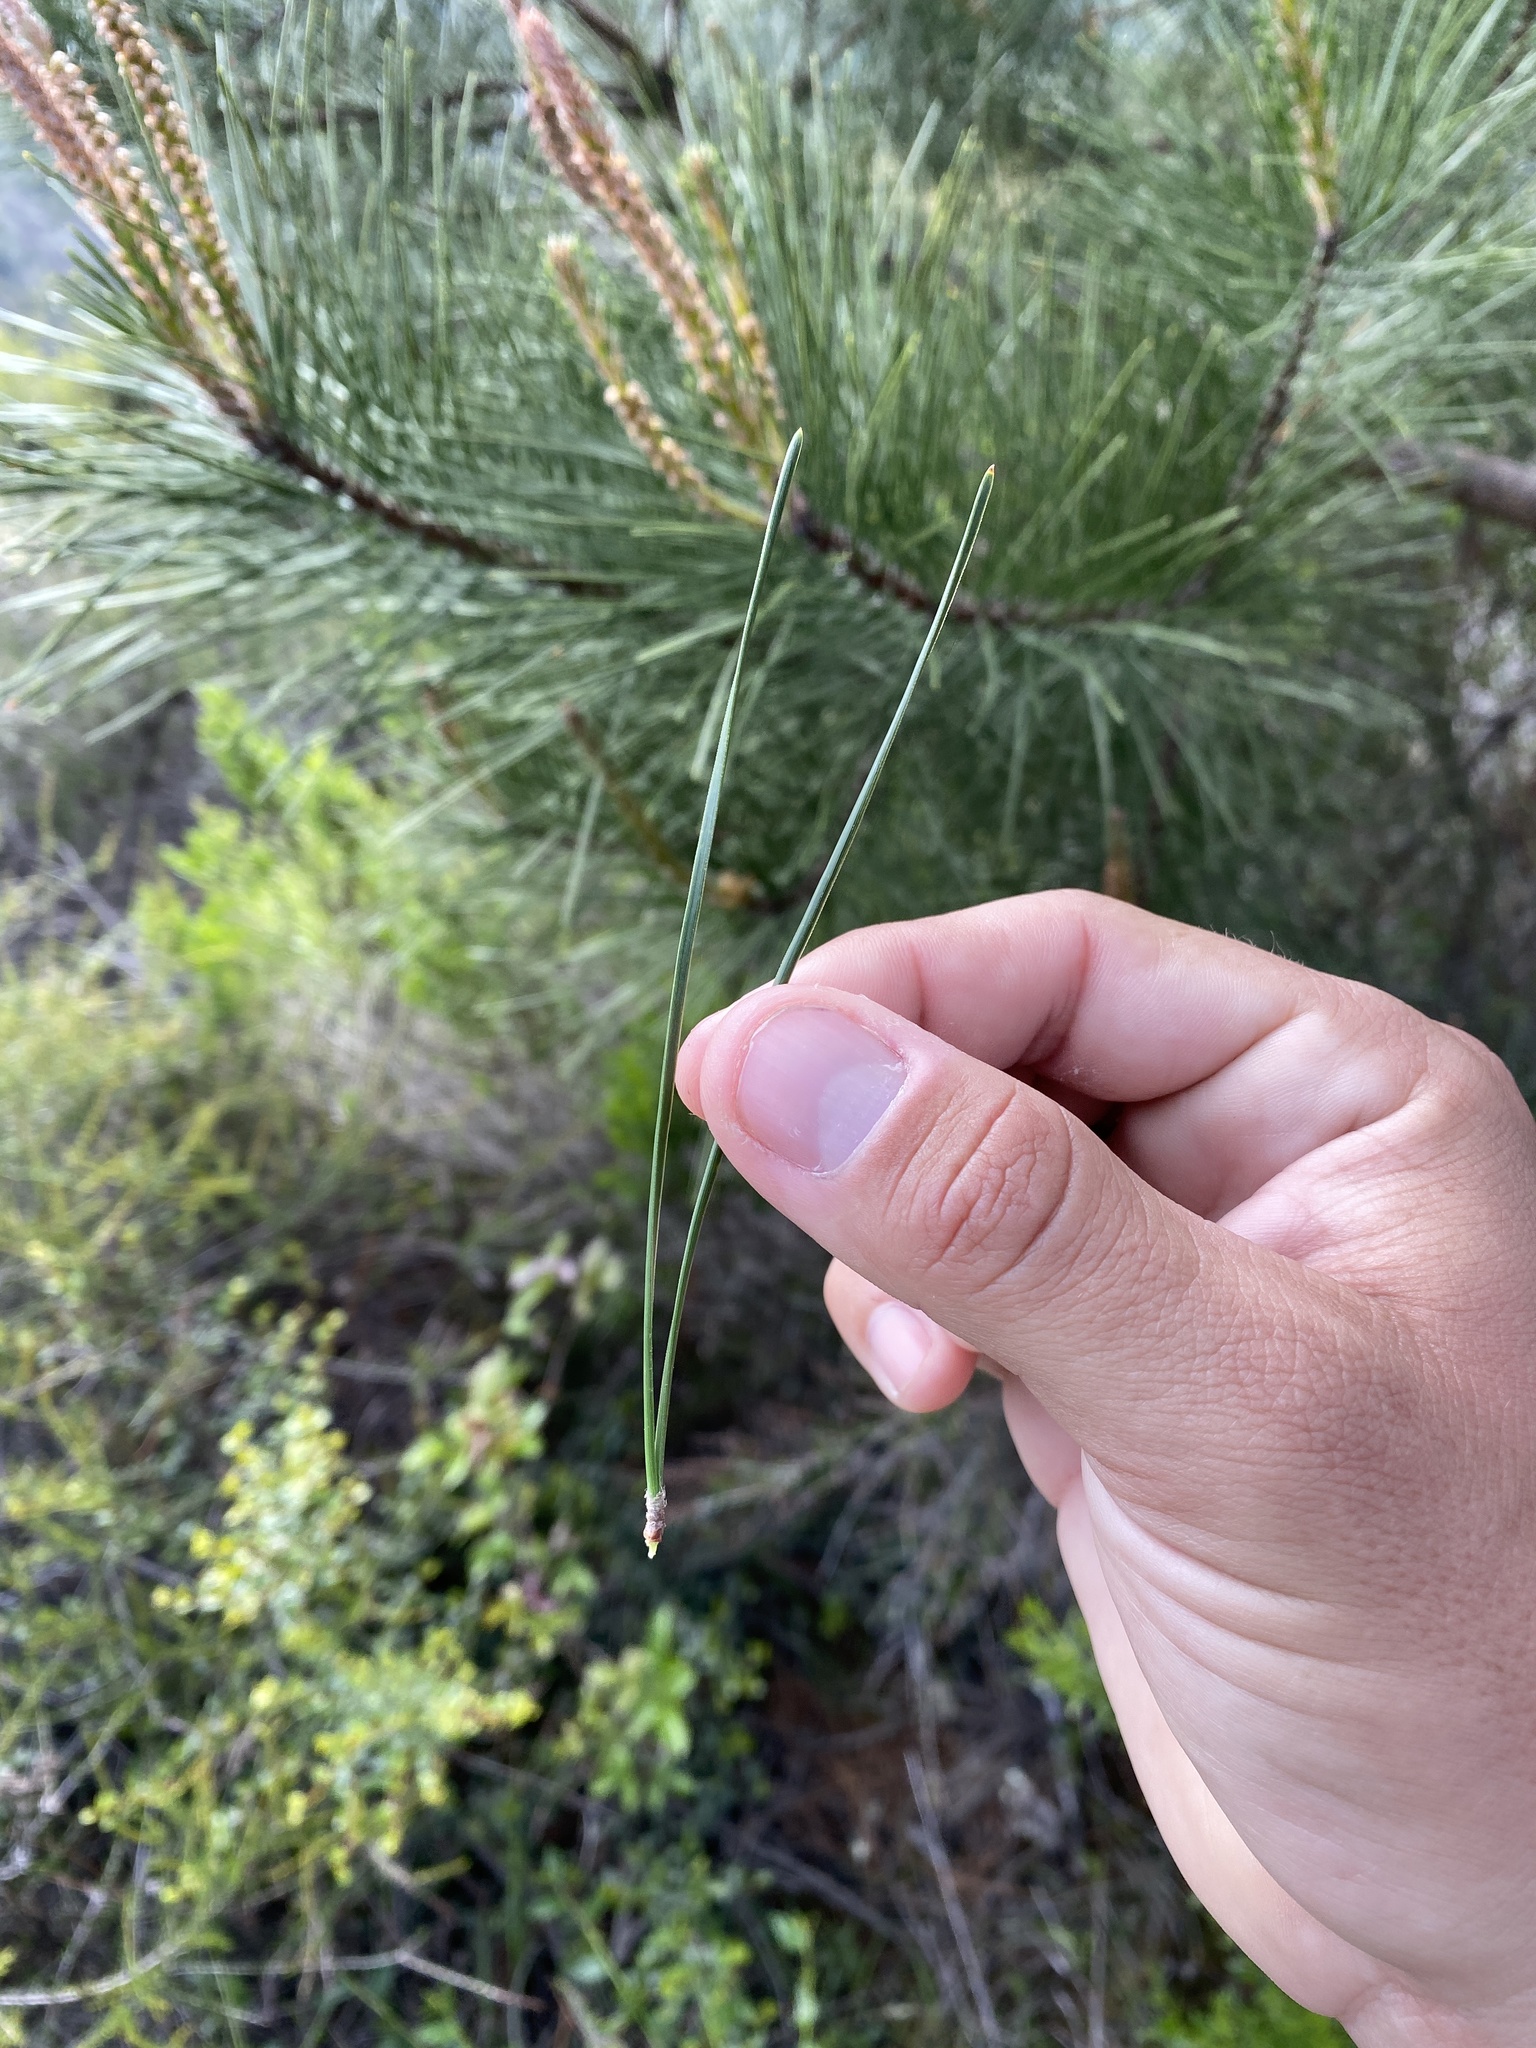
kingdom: Plantae
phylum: Tracheophyta
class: Pinopsida
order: Pinales
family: Pinaceae
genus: Pinus
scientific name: Pinus muricata
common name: Bishop pine
